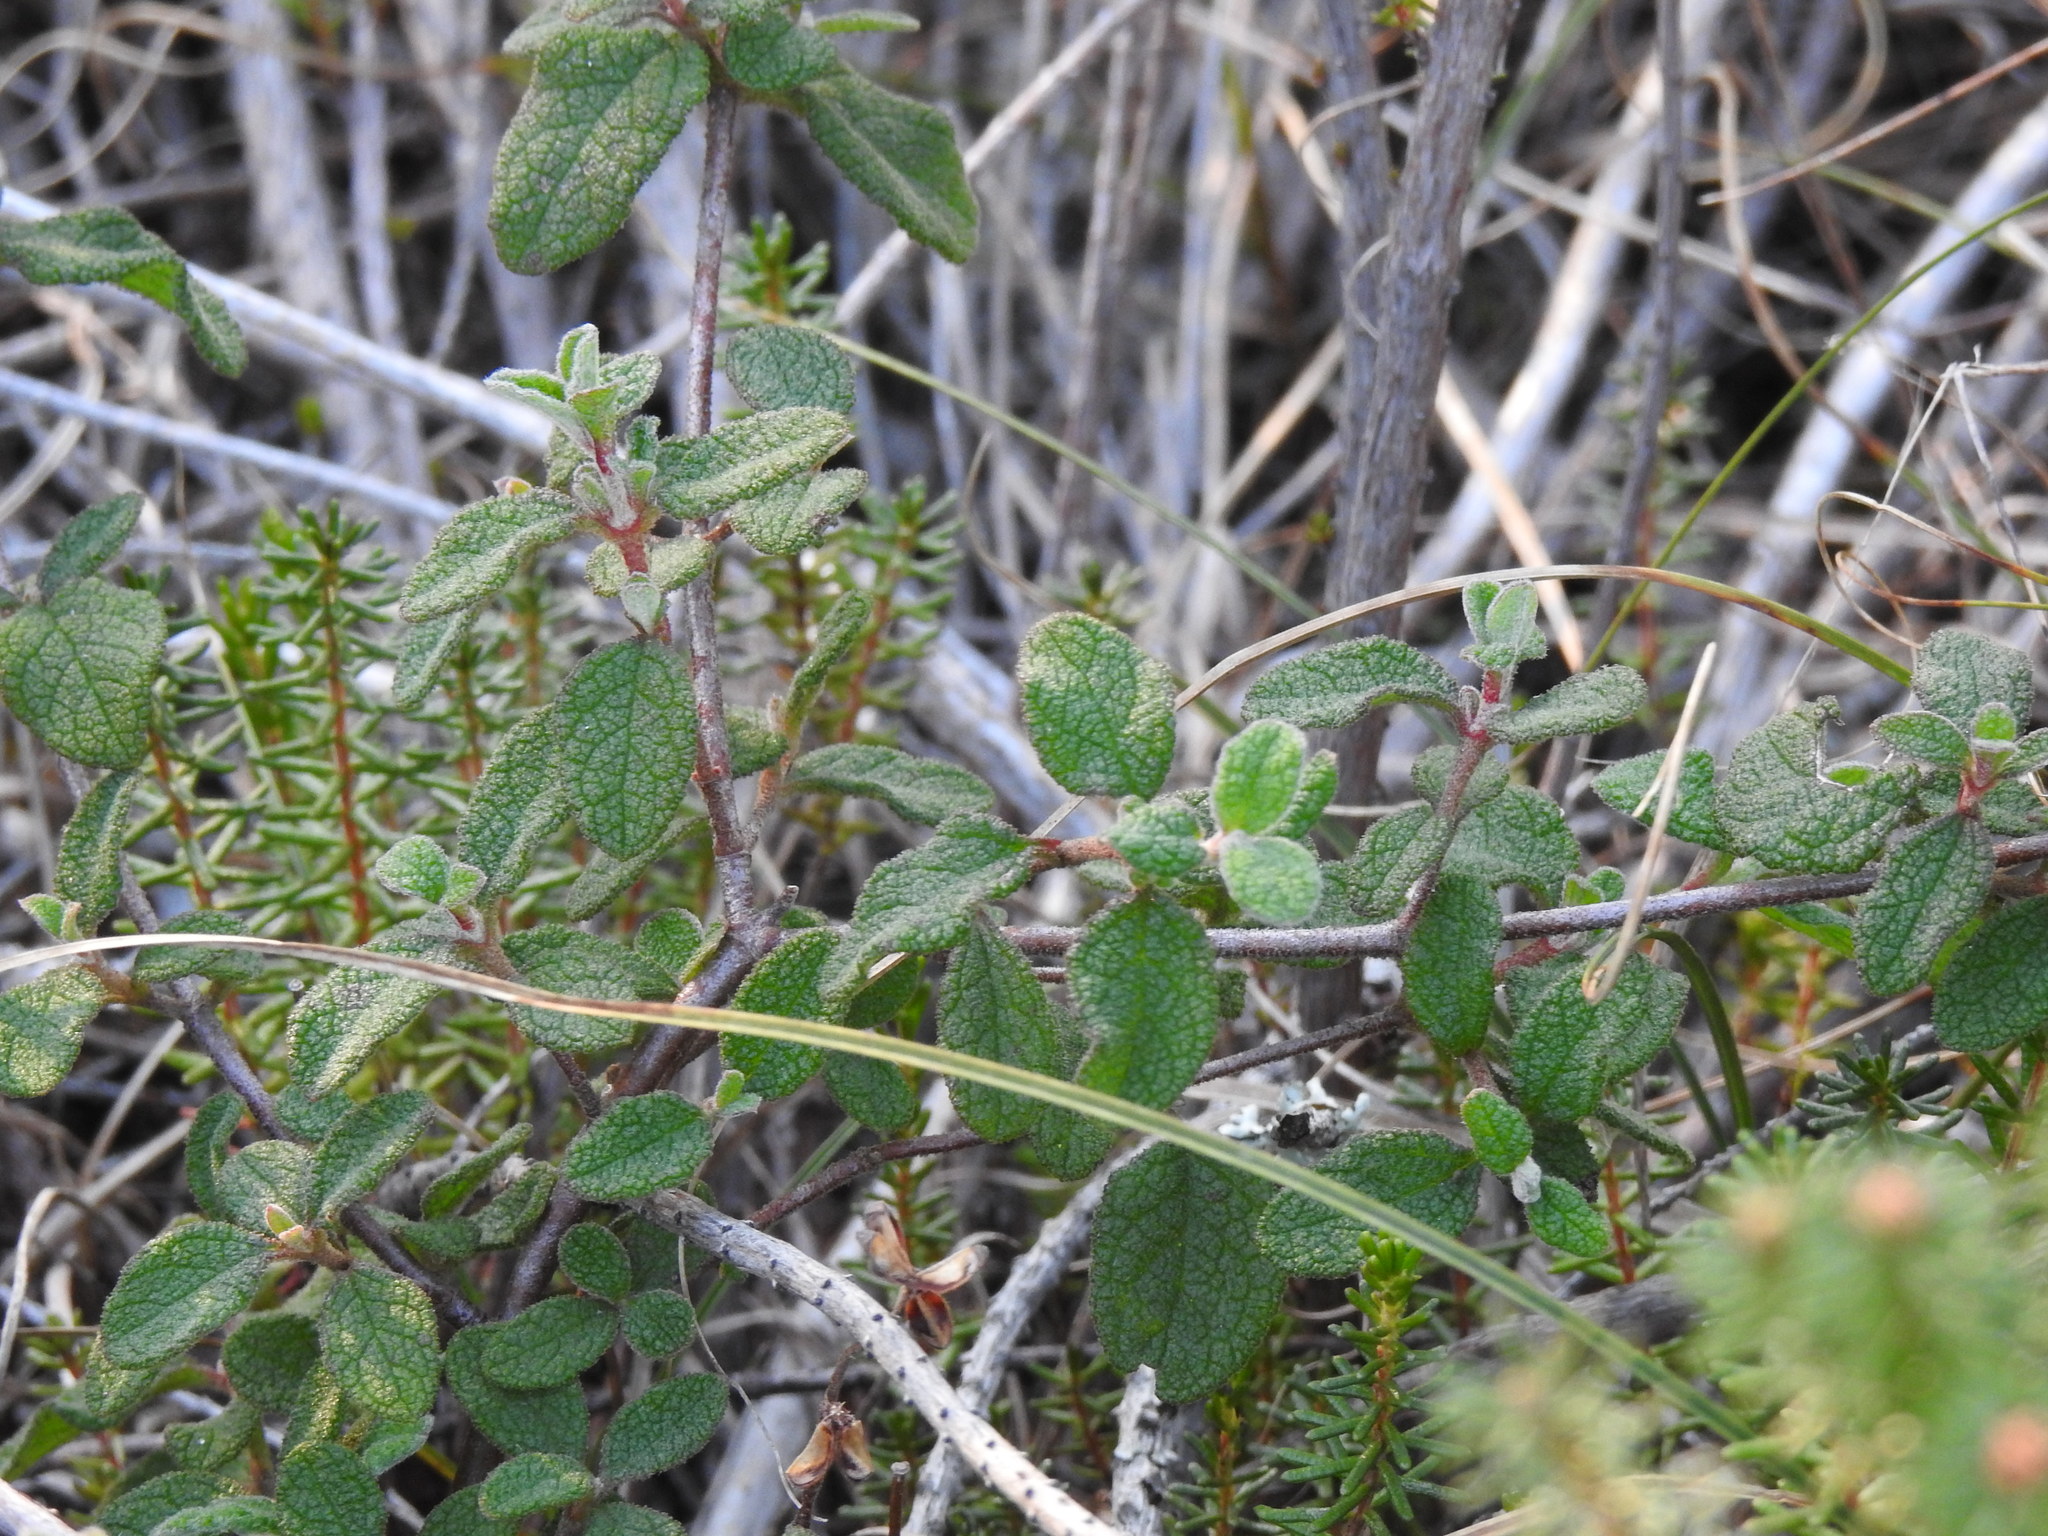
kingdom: Plantae
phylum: Tracheophyta
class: Magnoliopsida
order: Malvales
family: Cistaceae
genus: Cistus
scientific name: Cistus salviifolius
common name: Salvia cistus
